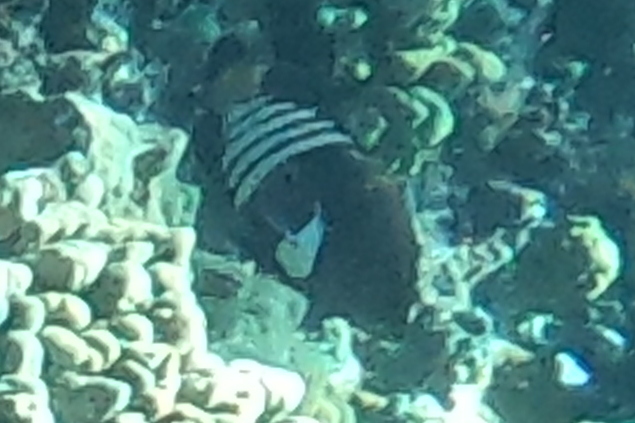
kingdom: Animalia
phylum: Chordata
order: Perciformes
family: Serranidae
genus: Cephalopholis
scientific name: Cephalopholis argus
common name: Peacock grouper
